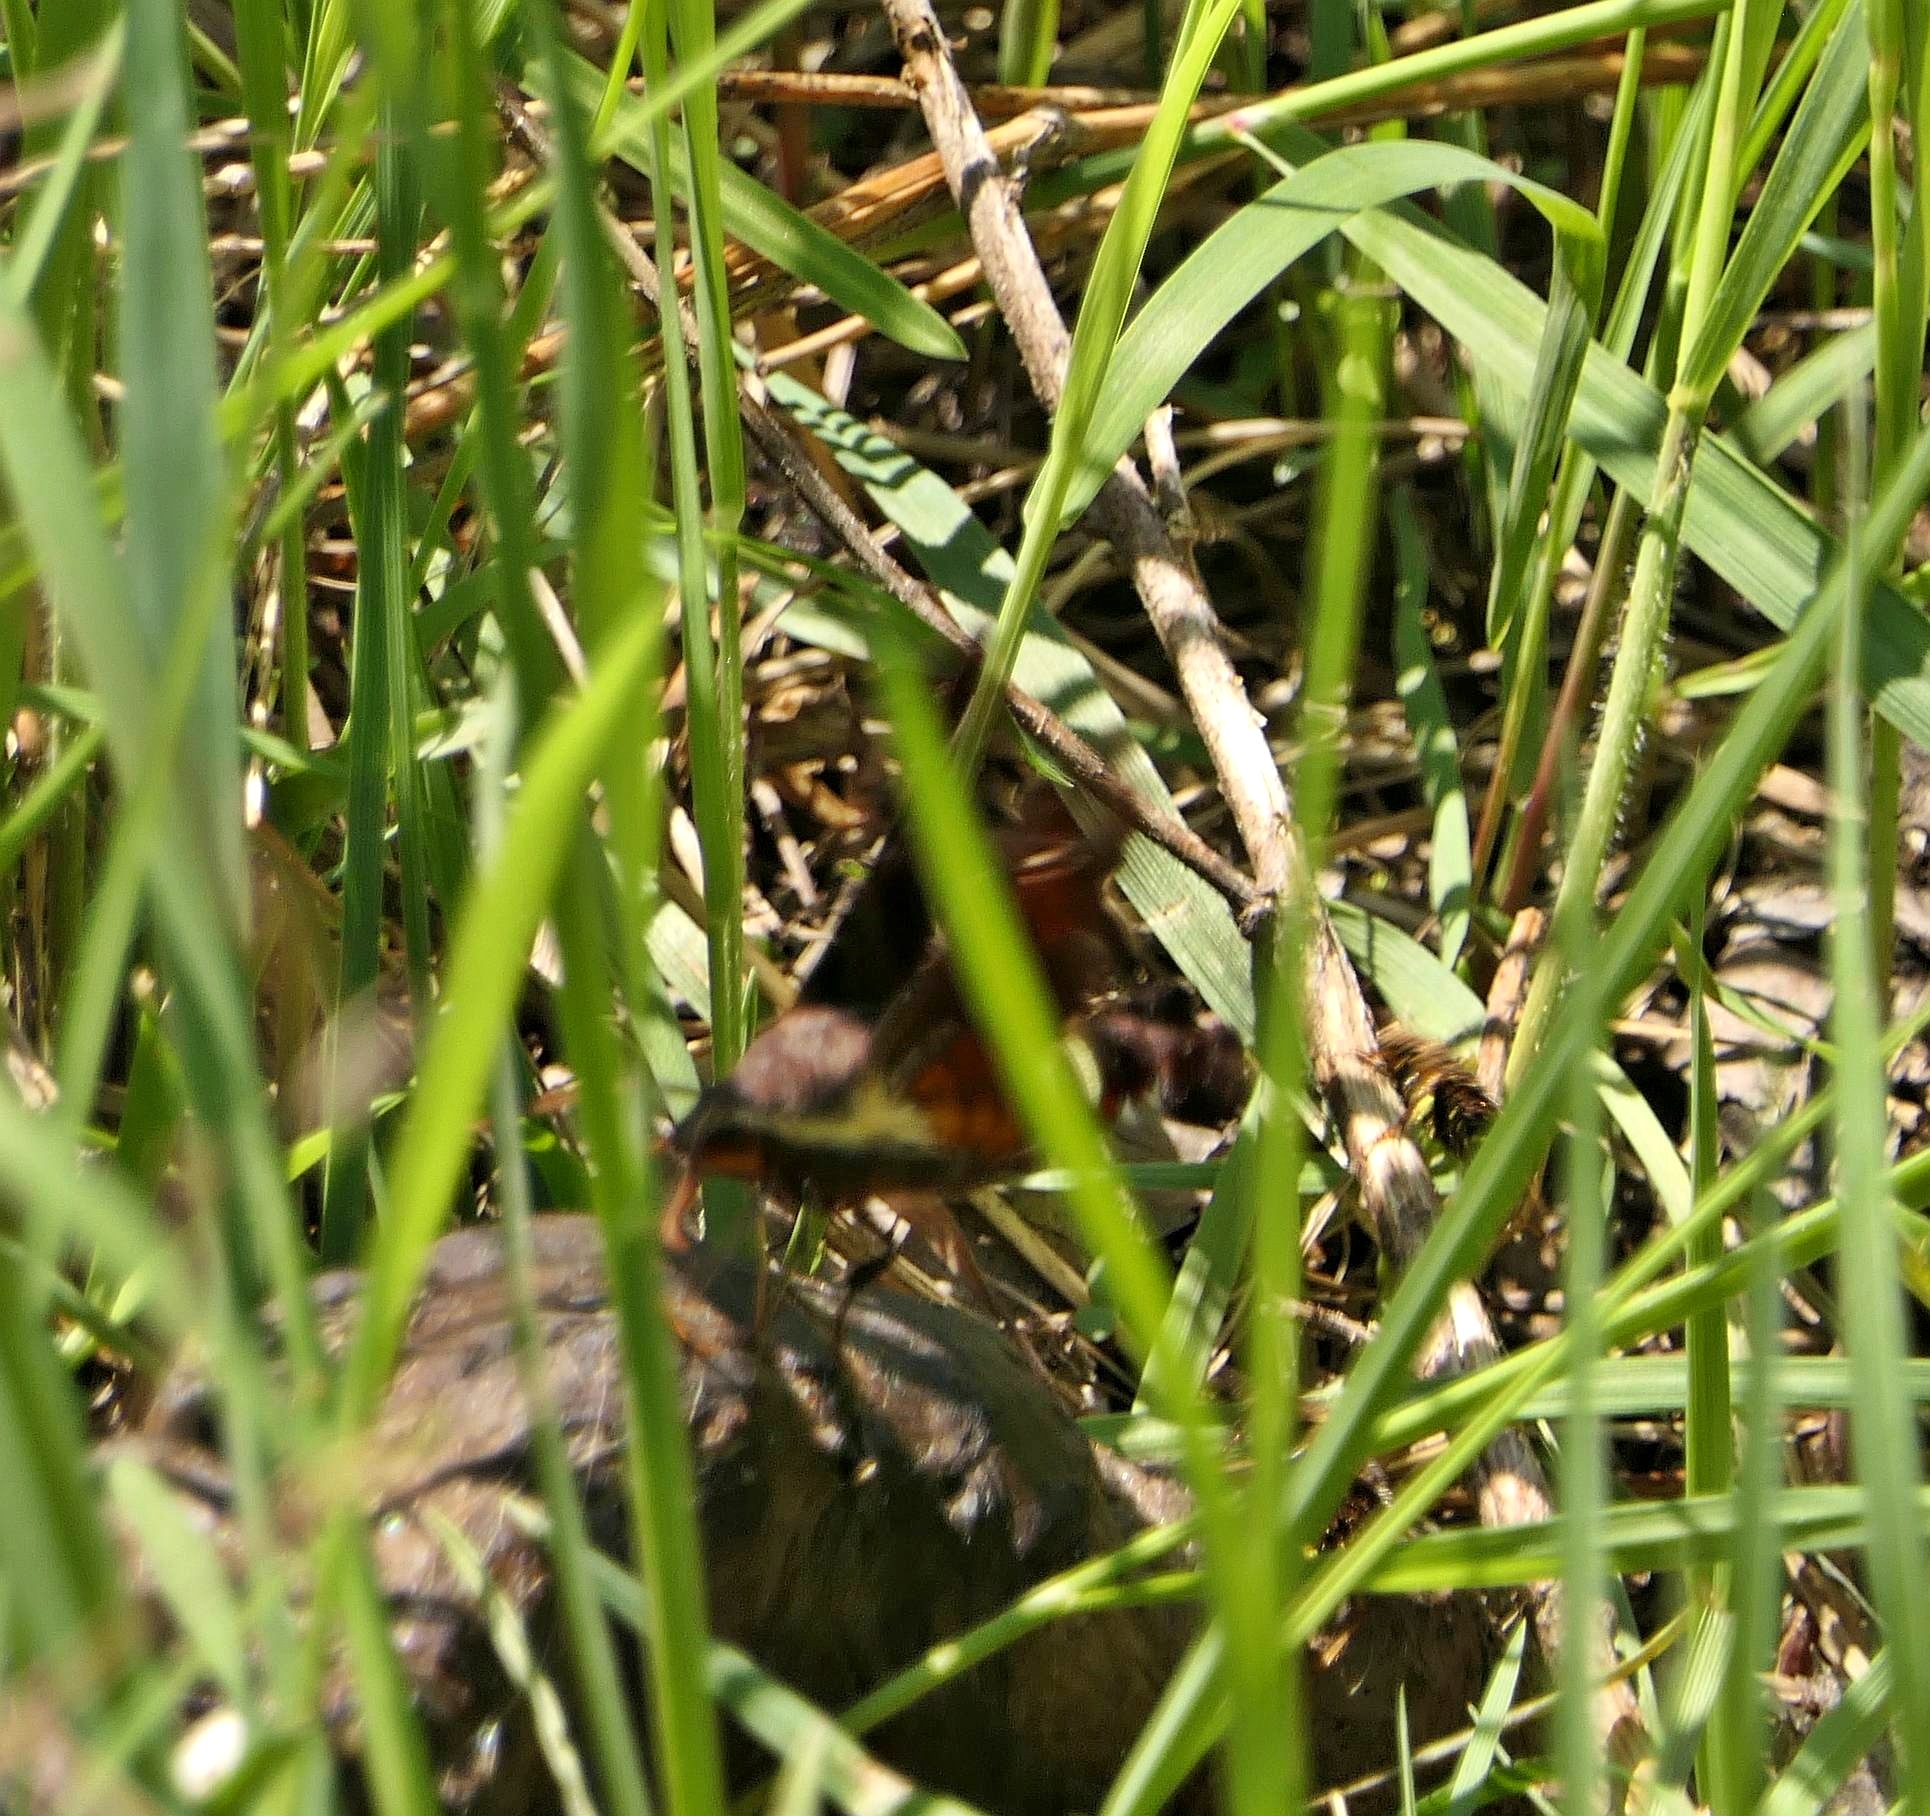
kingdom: Animalia
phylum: Arthropoda
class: Insecta
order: Lepidoptera
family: Sphingidae
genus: Amphion
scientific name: Amphion floridensis
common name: Nessus sphinx
